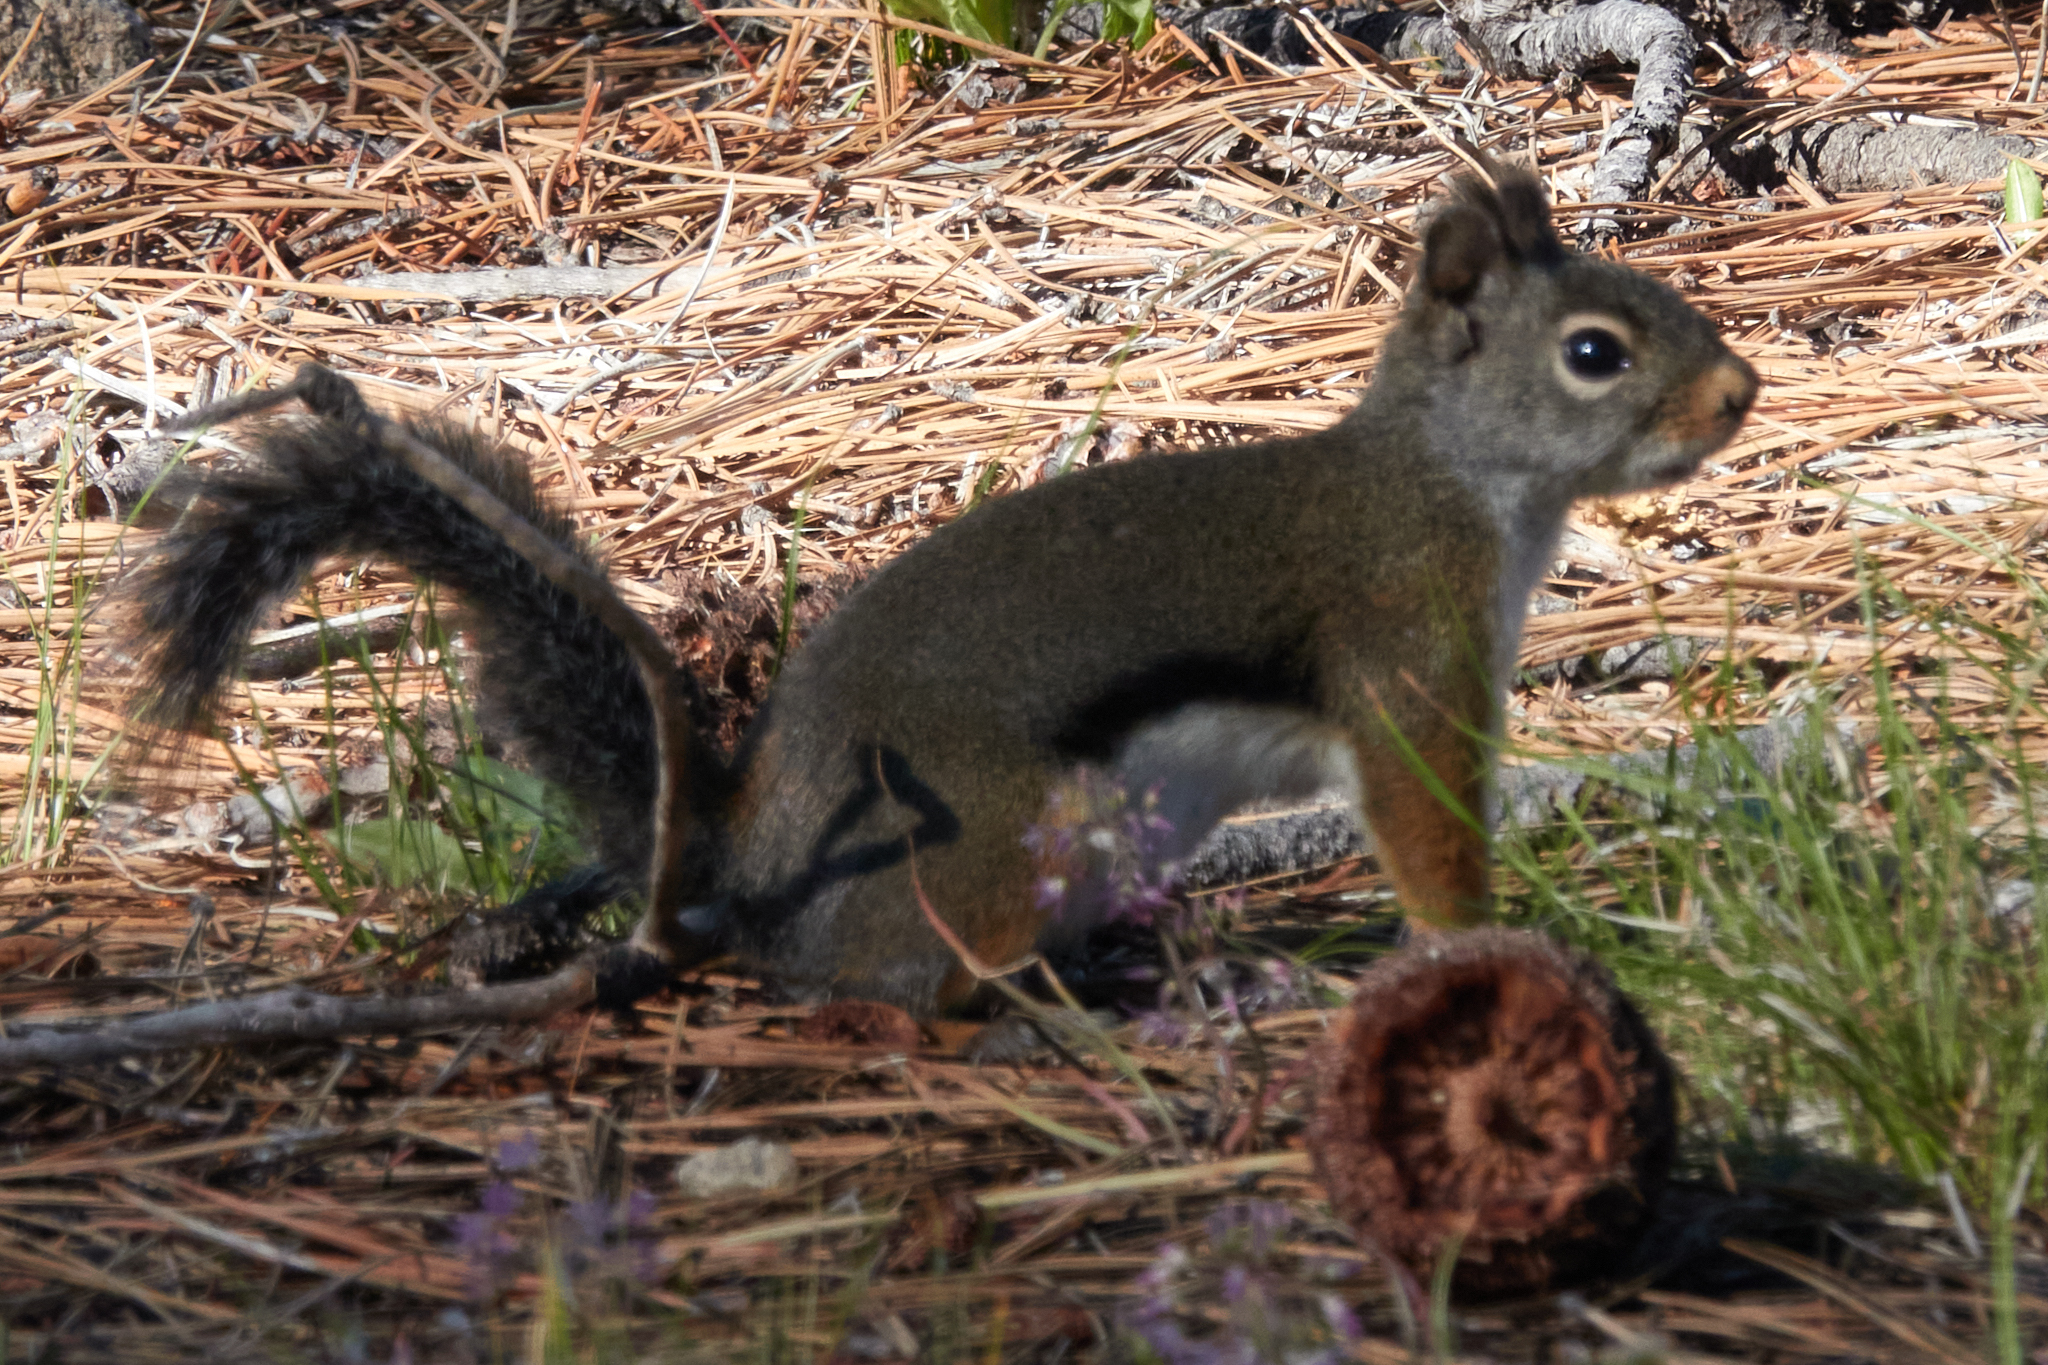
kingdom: Animalia
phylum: Chordata
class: Mammalia
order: Rodentia
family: Sciuridae
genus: Tamiasciurus
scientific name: Tamiasciurus douglasii
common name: Douglas's squirrel
